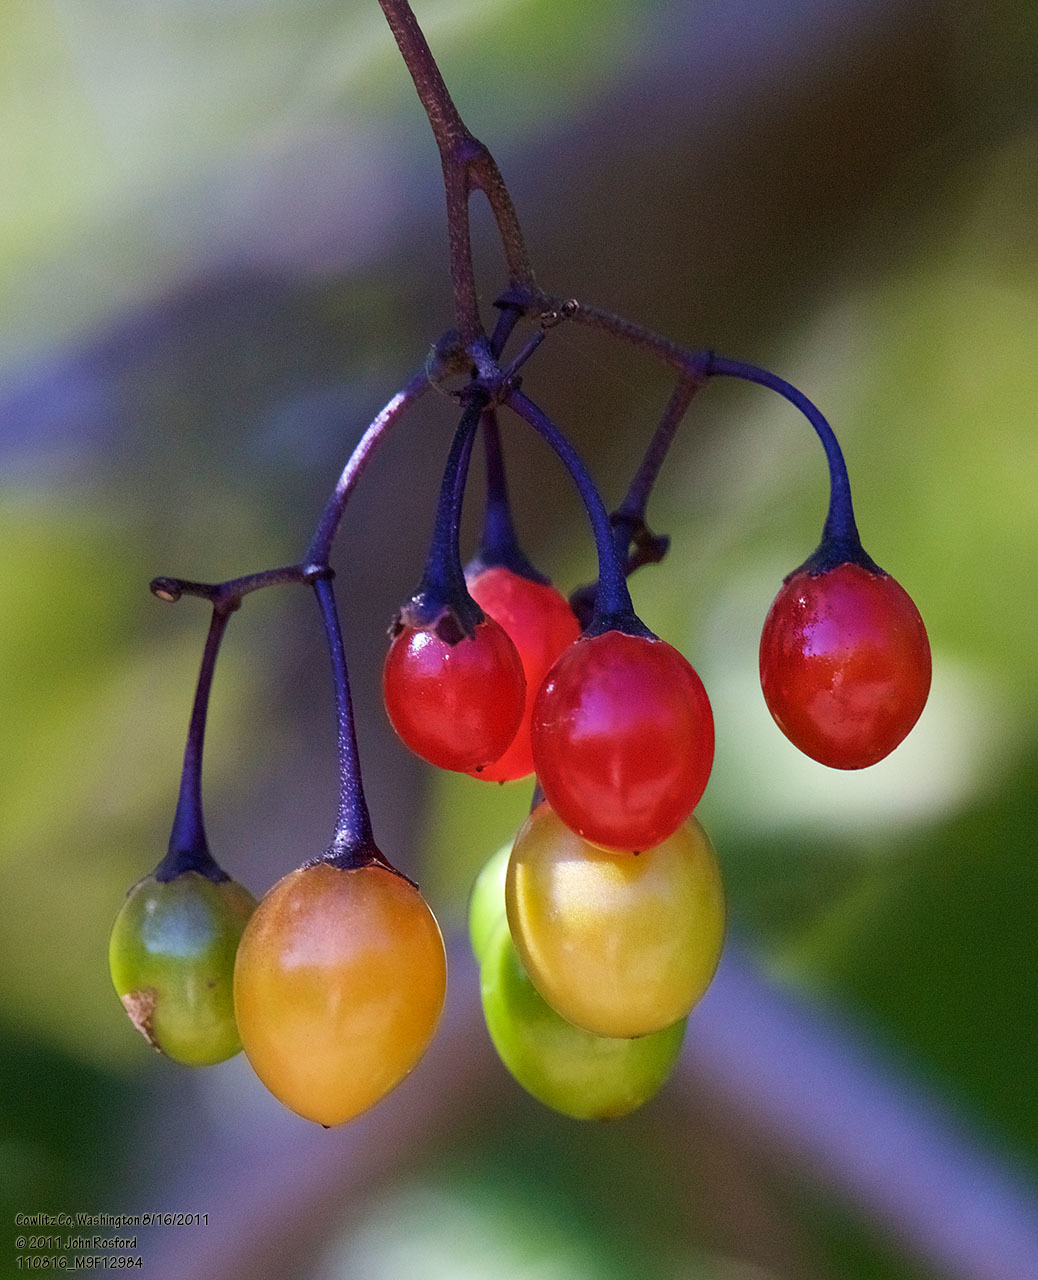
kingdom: Plantae
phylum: Tracheophyta
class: Magnoliopsida
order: Solanales
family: Solanaceae
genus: Solanum
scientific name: Solanum dulcamara
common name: Climbing nightshade
